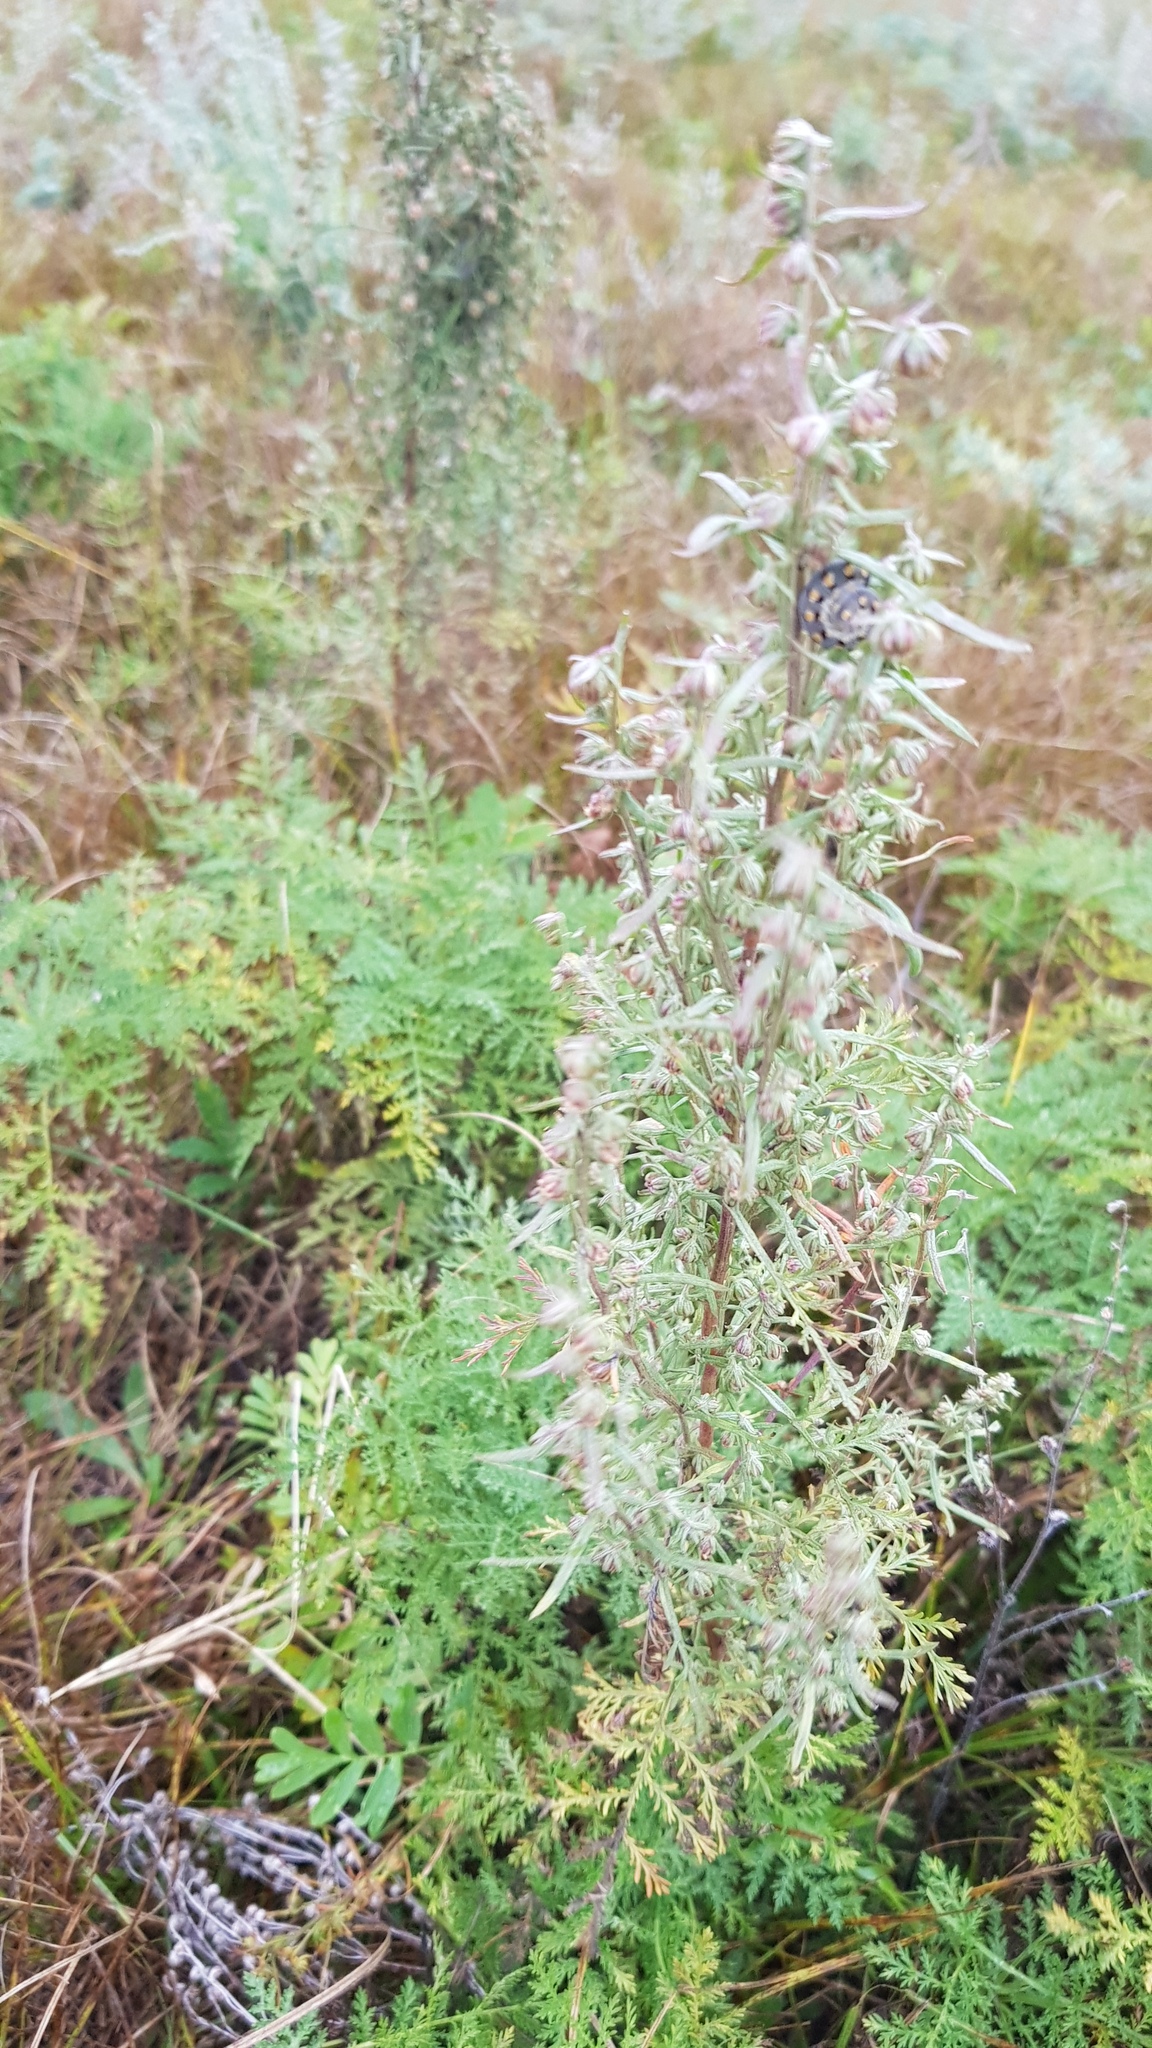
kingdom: Plantae
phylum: Tracheophyta
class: Magnoliopsida
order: Asterales
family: Asteraceae
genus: Artemisia
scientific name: Artemisia gmelinii
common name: Gmelin's wormwood
